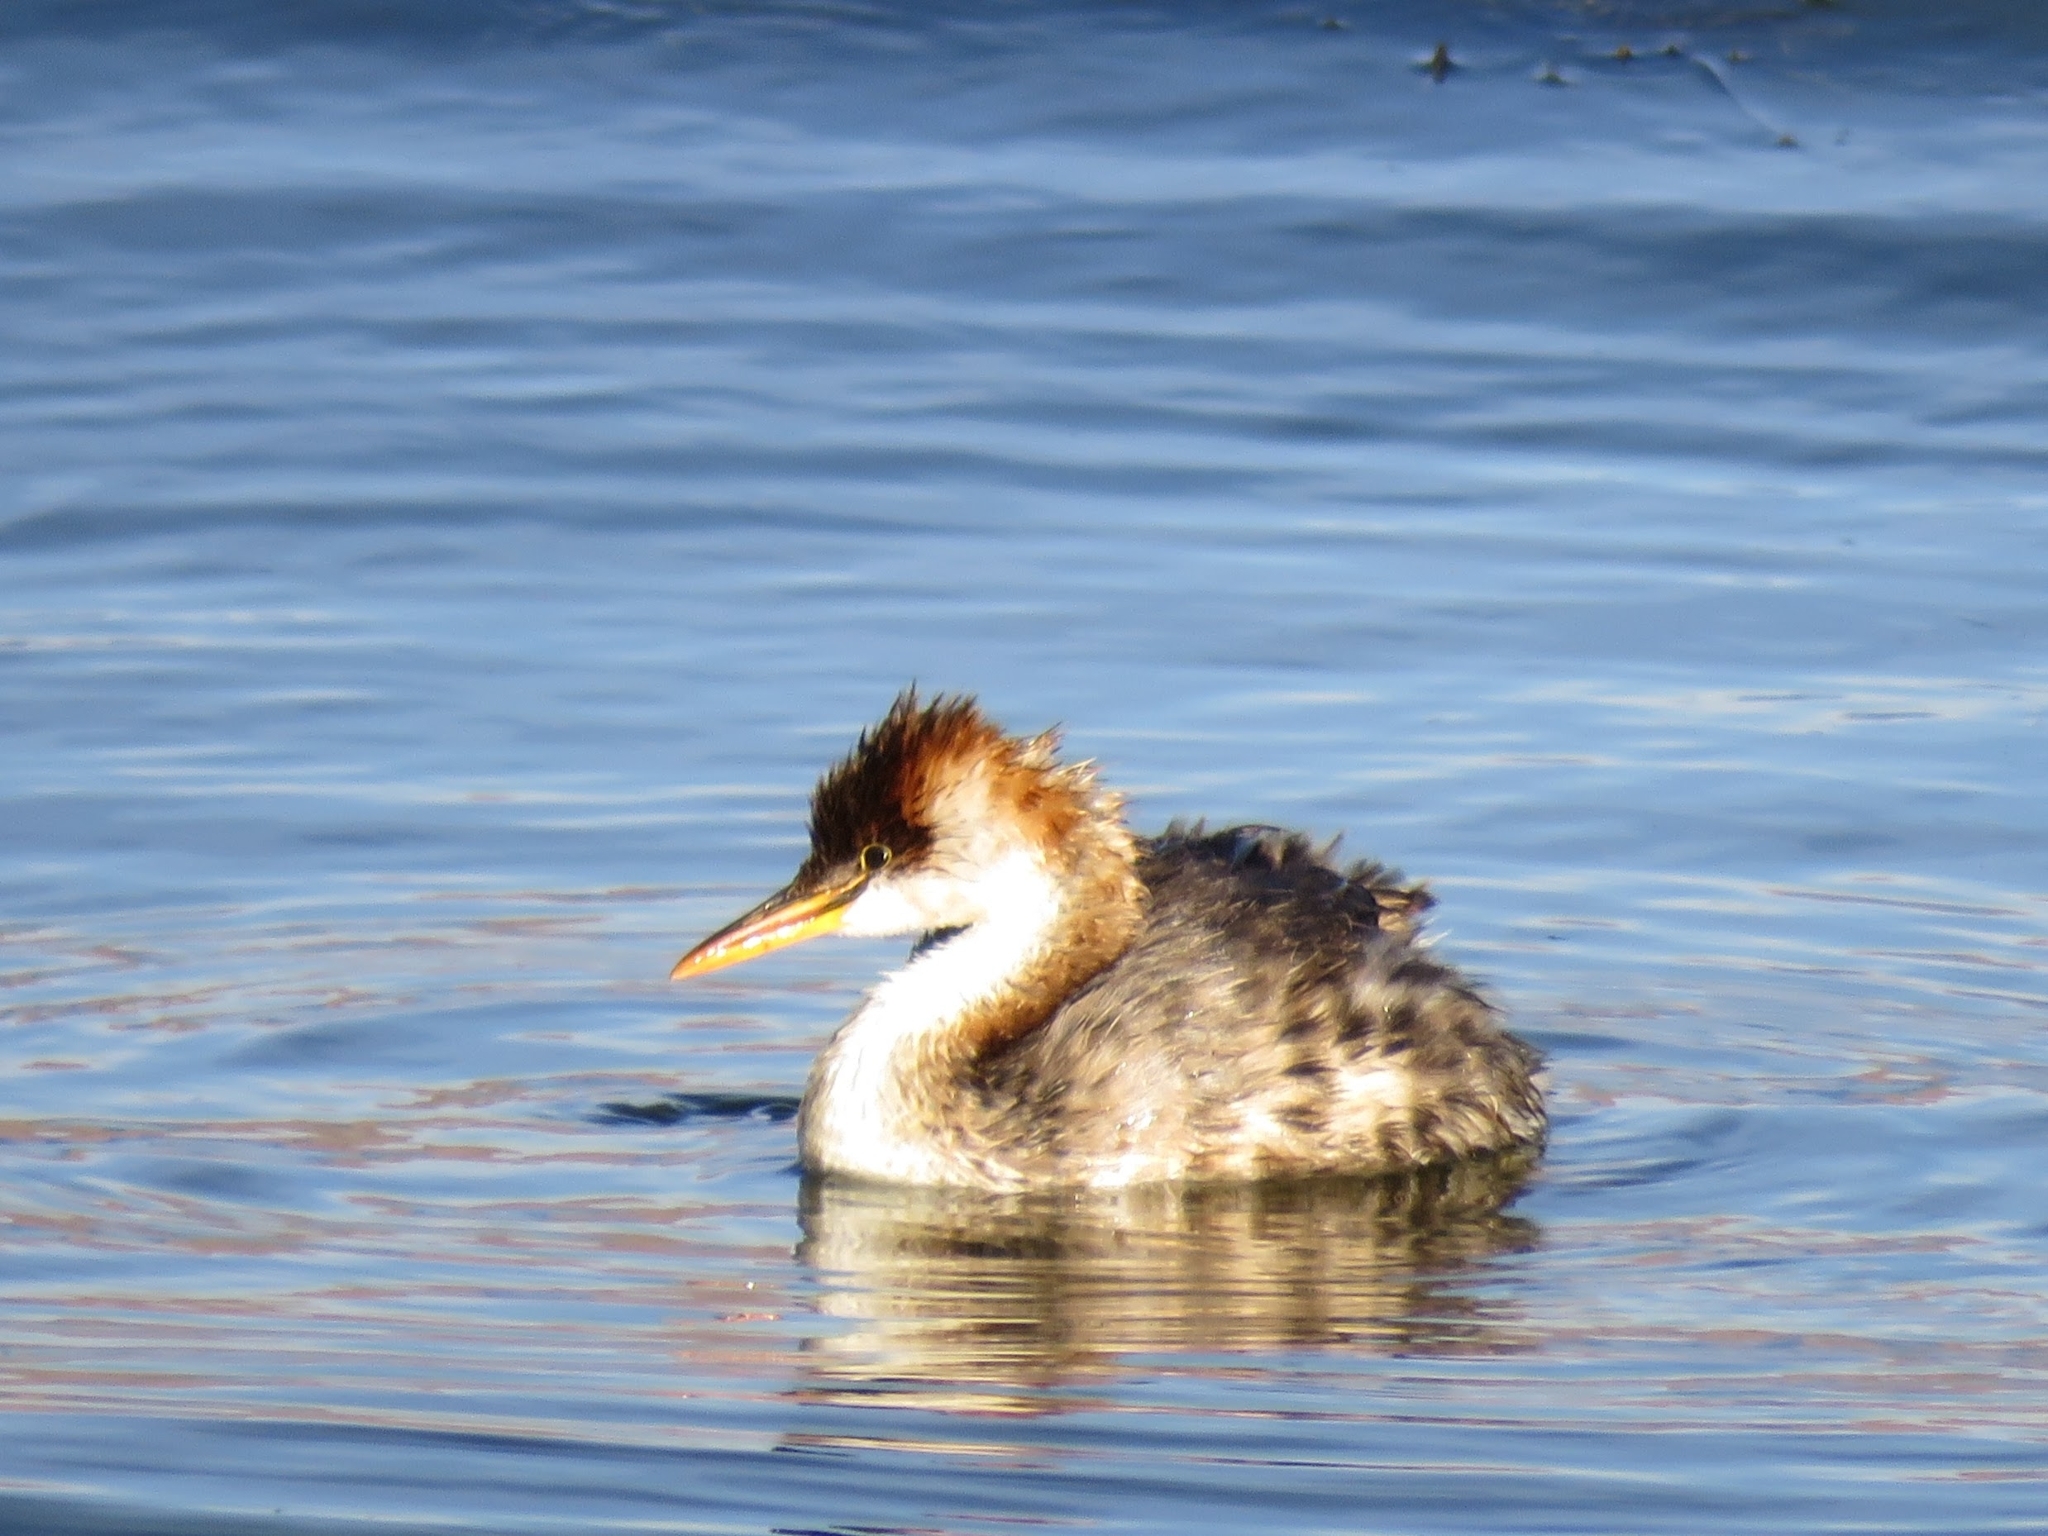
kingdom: Animalia
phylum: Chordata
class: Aves
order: Podicipediformes
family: Podicipedidae
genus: Rollandia
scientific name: Rollandia microptera
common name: Titicaca grebe
